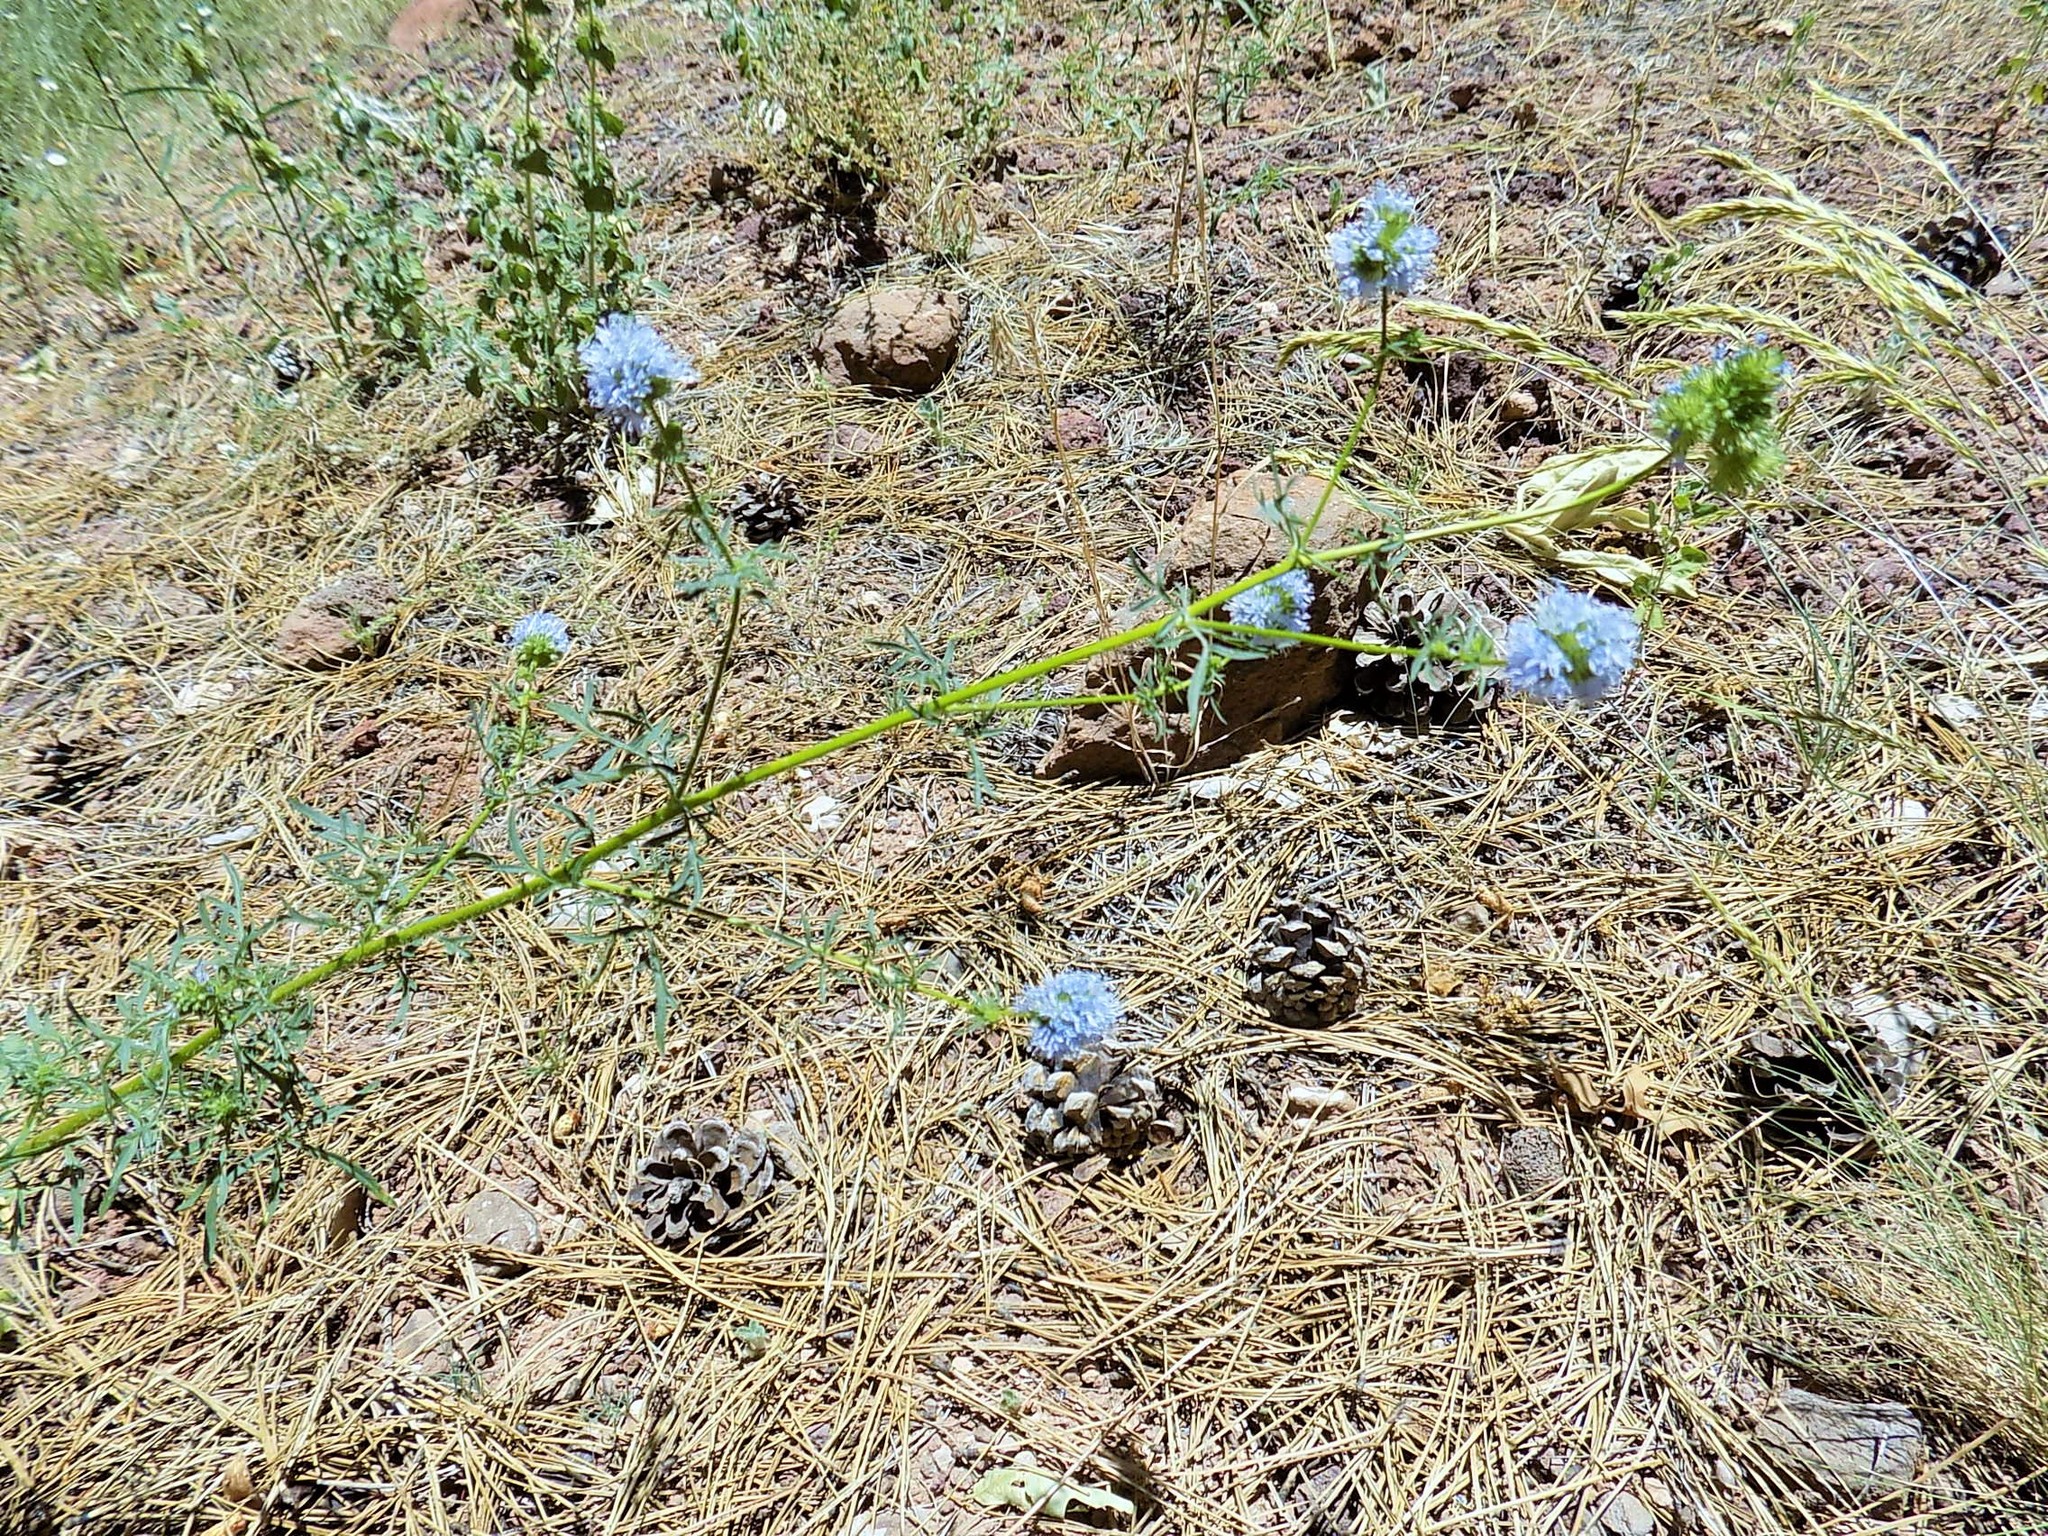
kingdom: Plantae
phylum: Tracheophyta
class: Magnoliopsida
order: Ericales
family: Polemoniaceae
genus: Gilia
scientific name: Gilia capitata
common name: Bluehead gilia
